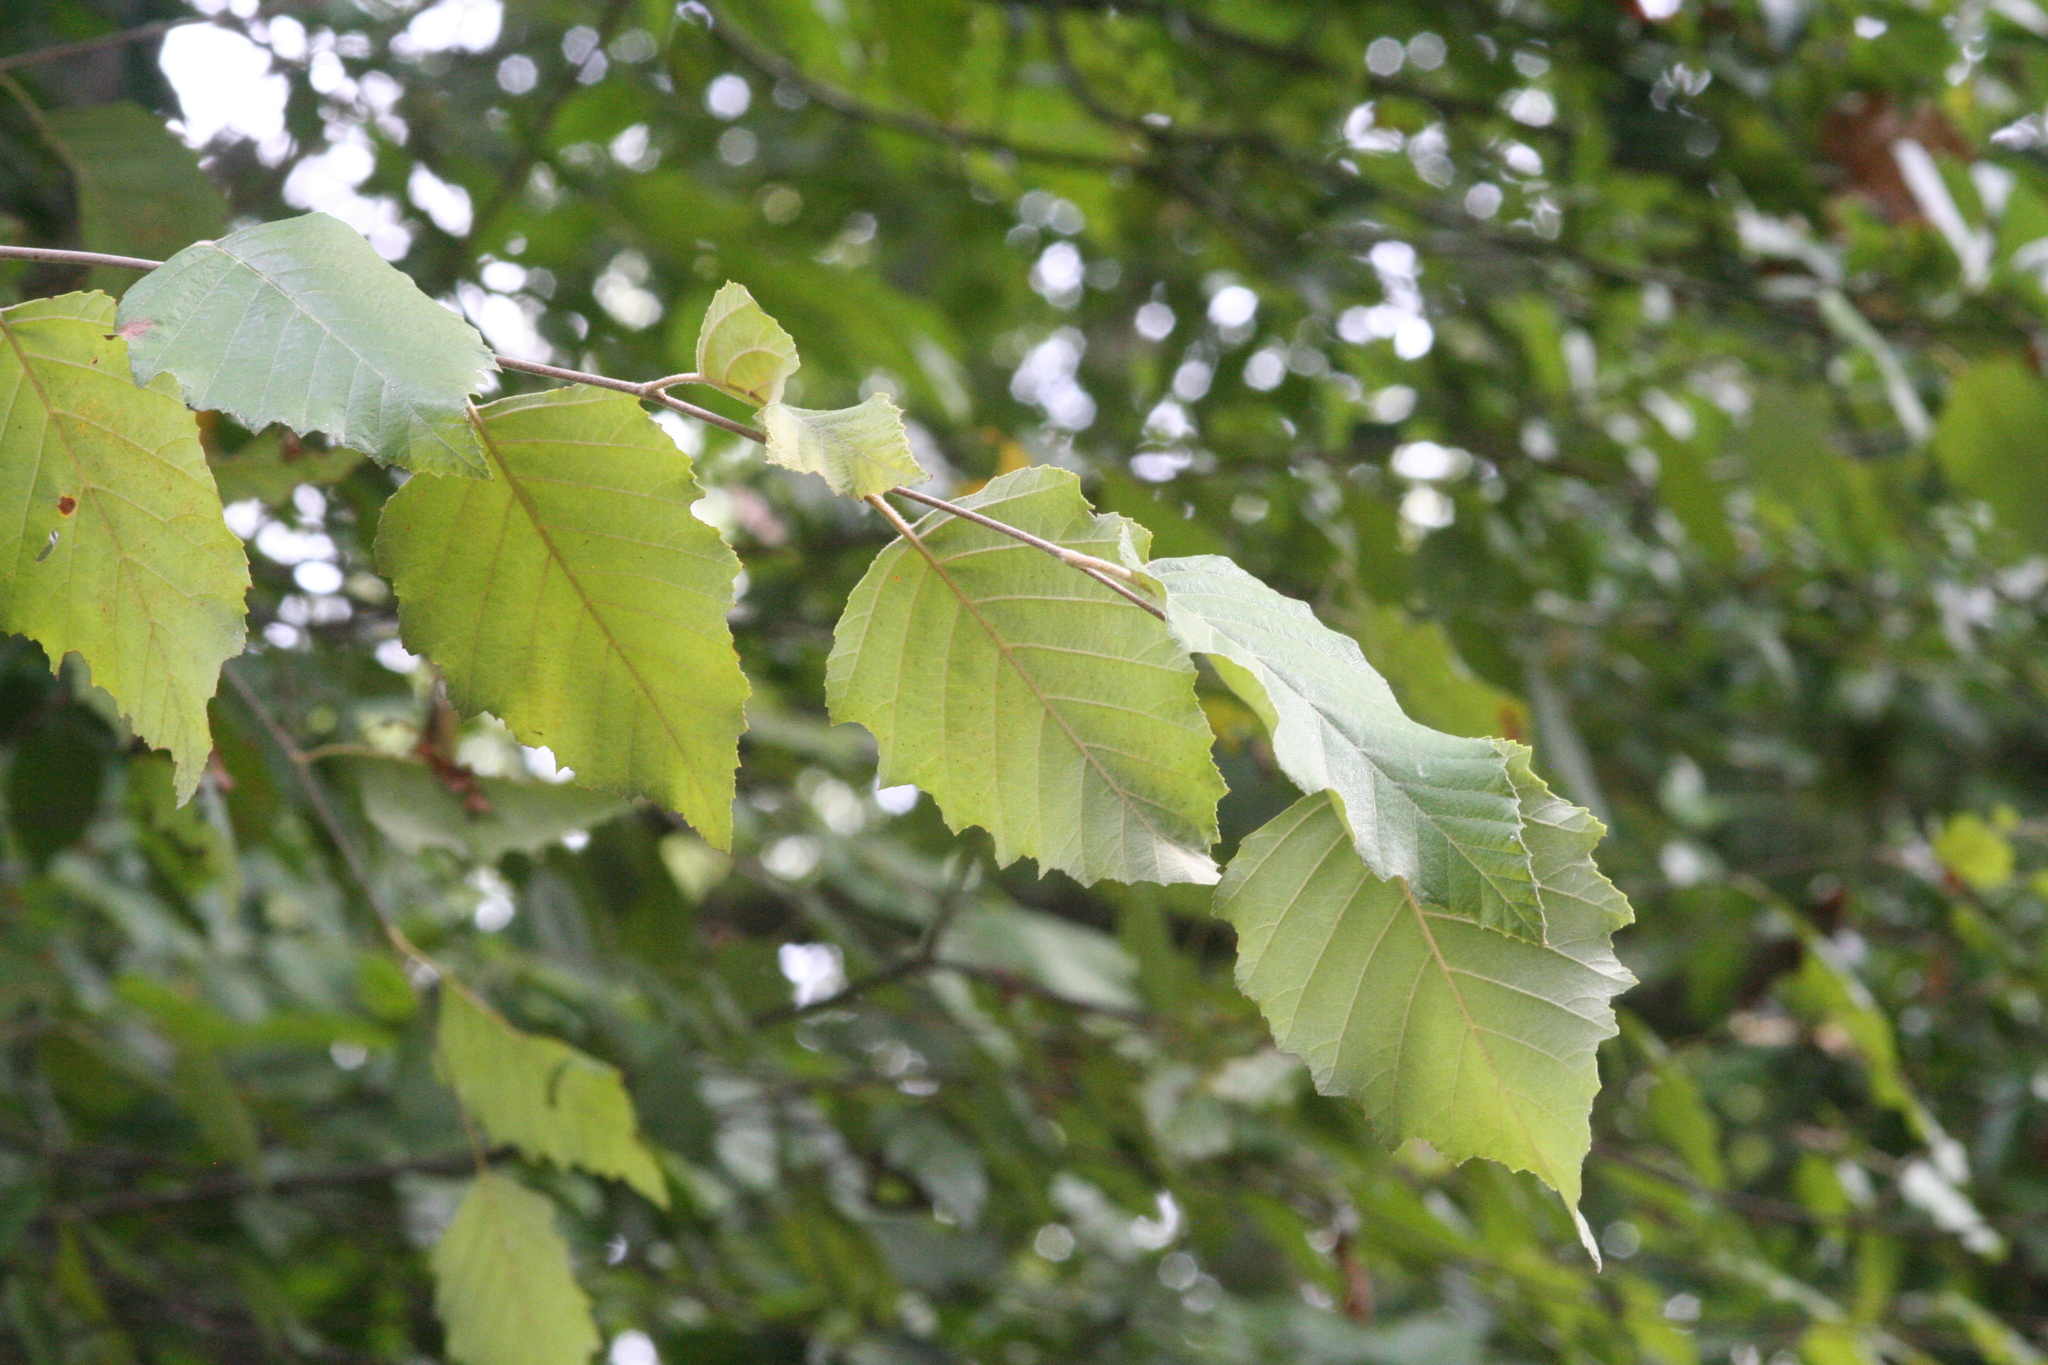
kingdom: Plantae
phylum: Tracheophyta
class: Magnoliopsida
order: Fagales
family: Betulaceae
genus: Betula
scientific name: Betula nigra
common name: Black birch
